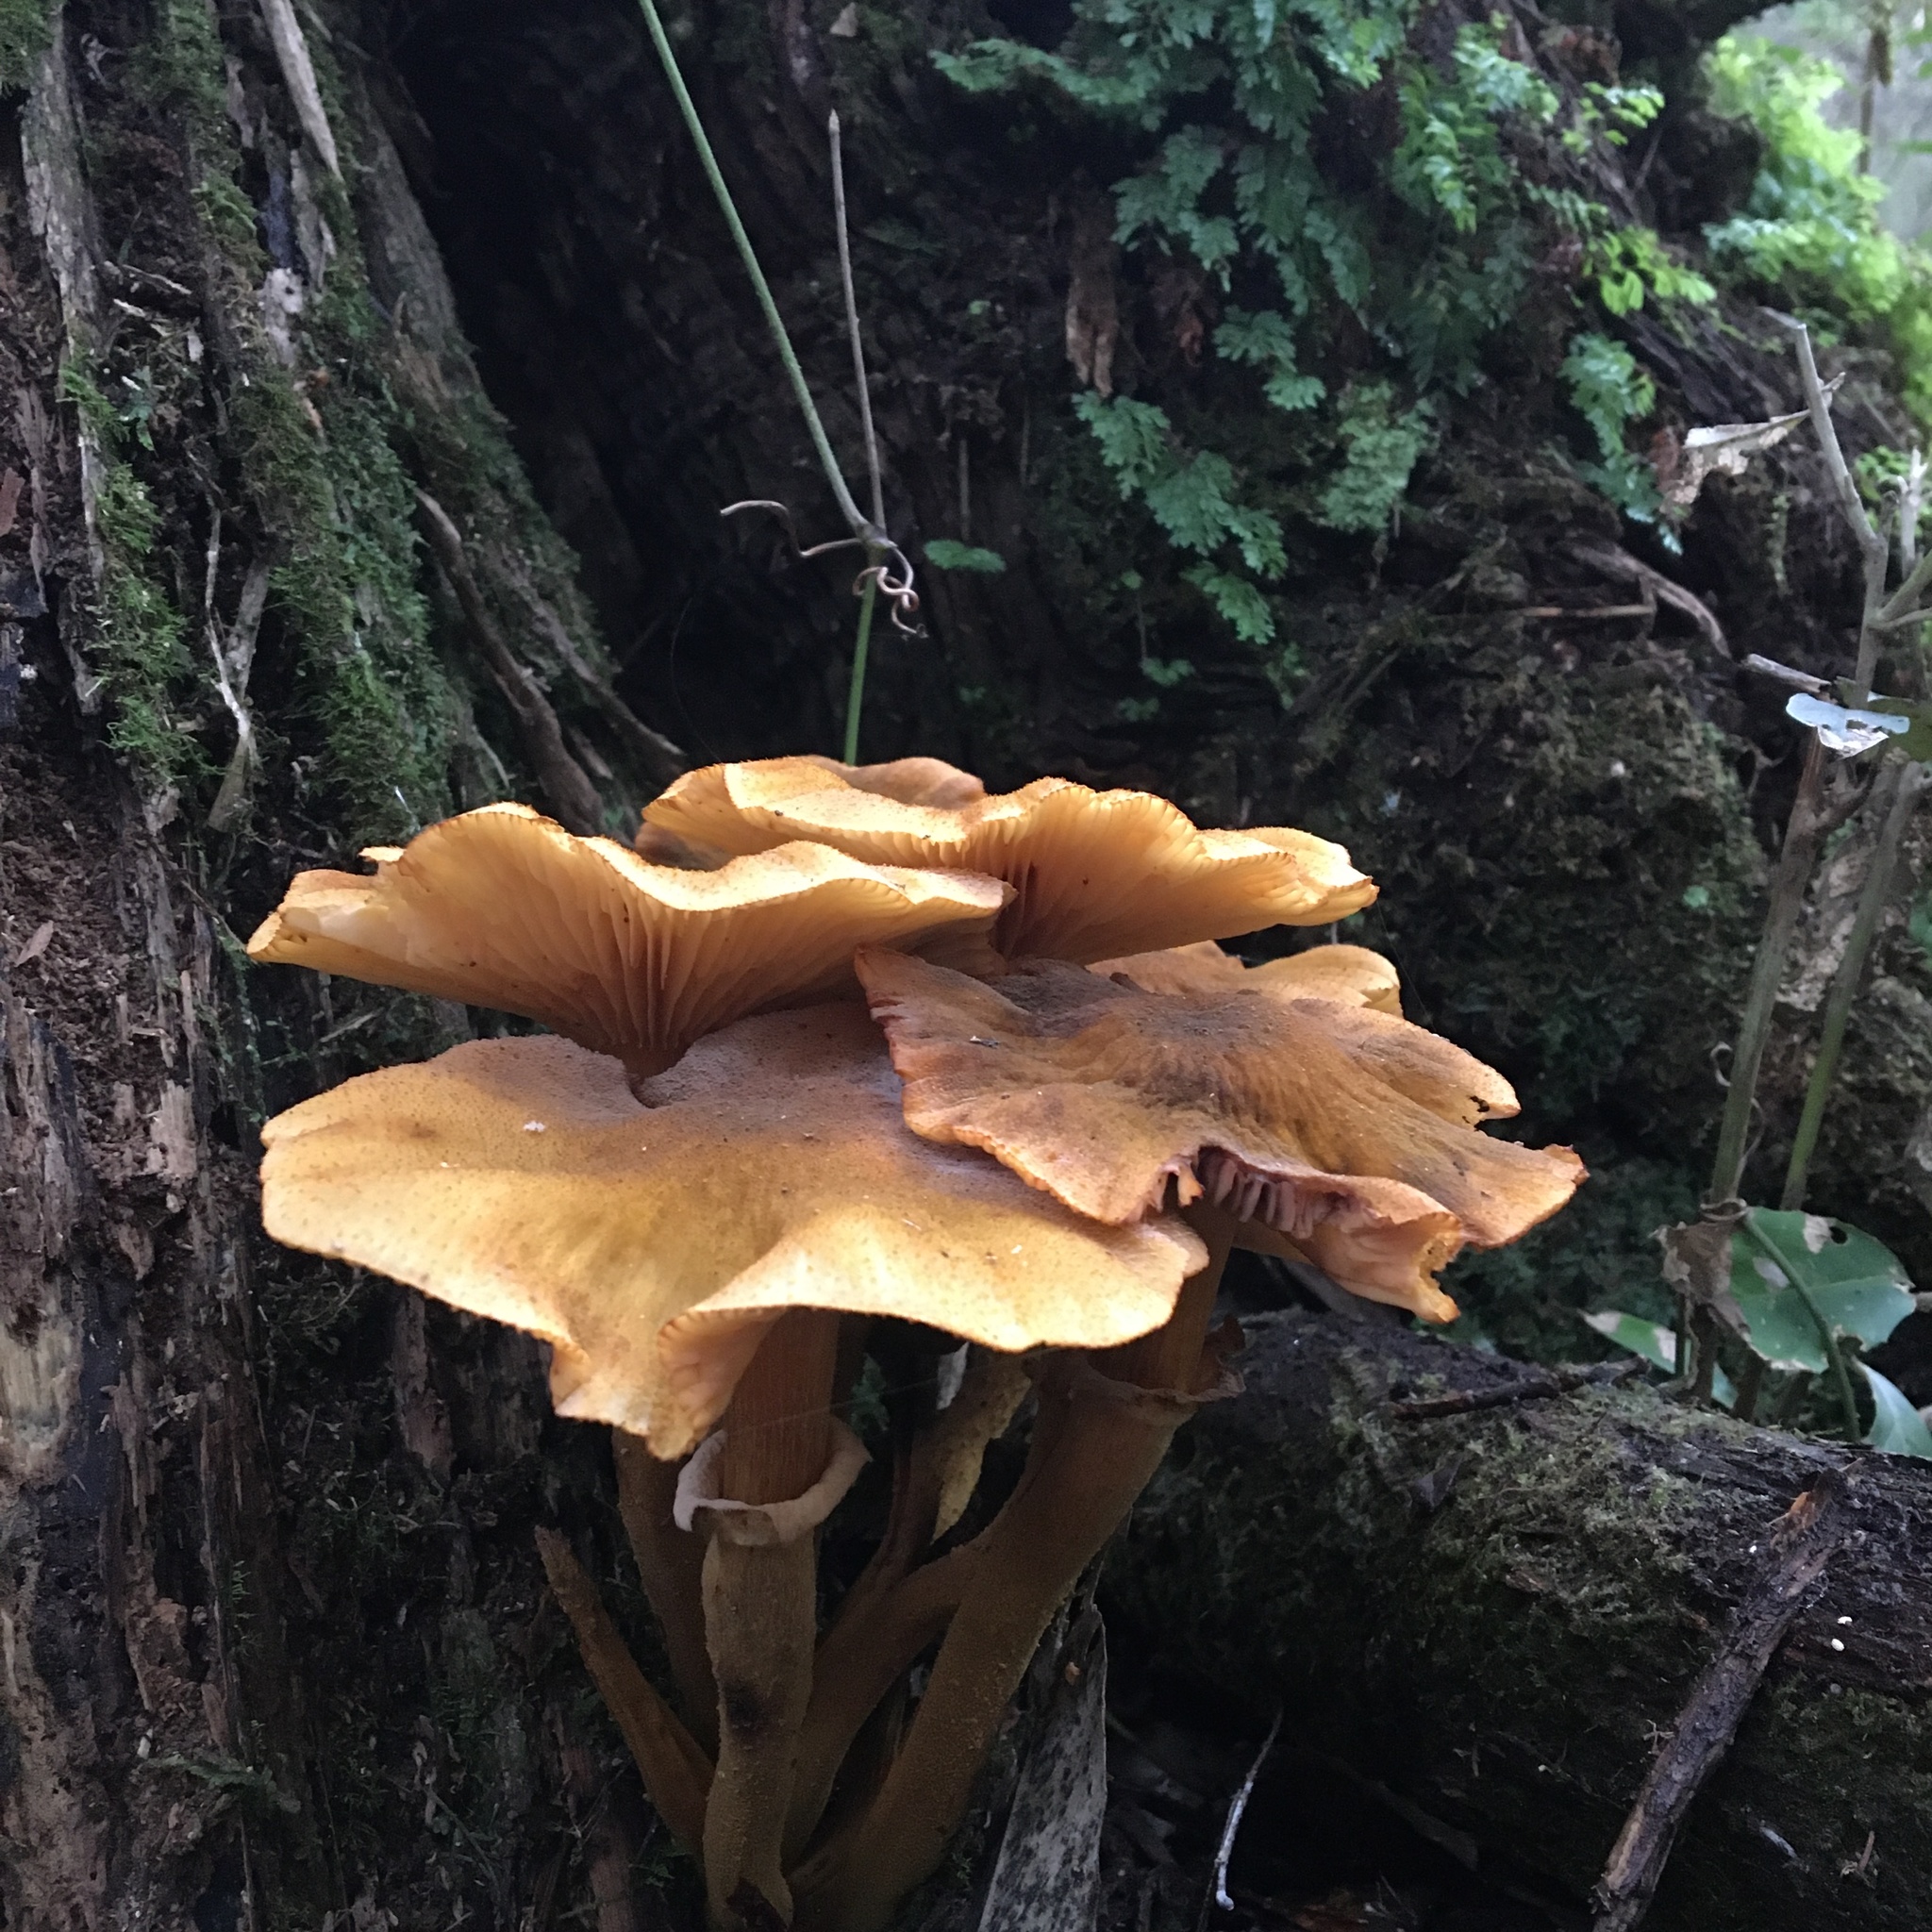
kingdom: Fungi
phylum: Basidiomycota
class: Agaricomycetes
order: Agaricales
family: Physalacriaceae
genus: Armillaria
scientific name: Armillaria luteobubalina
